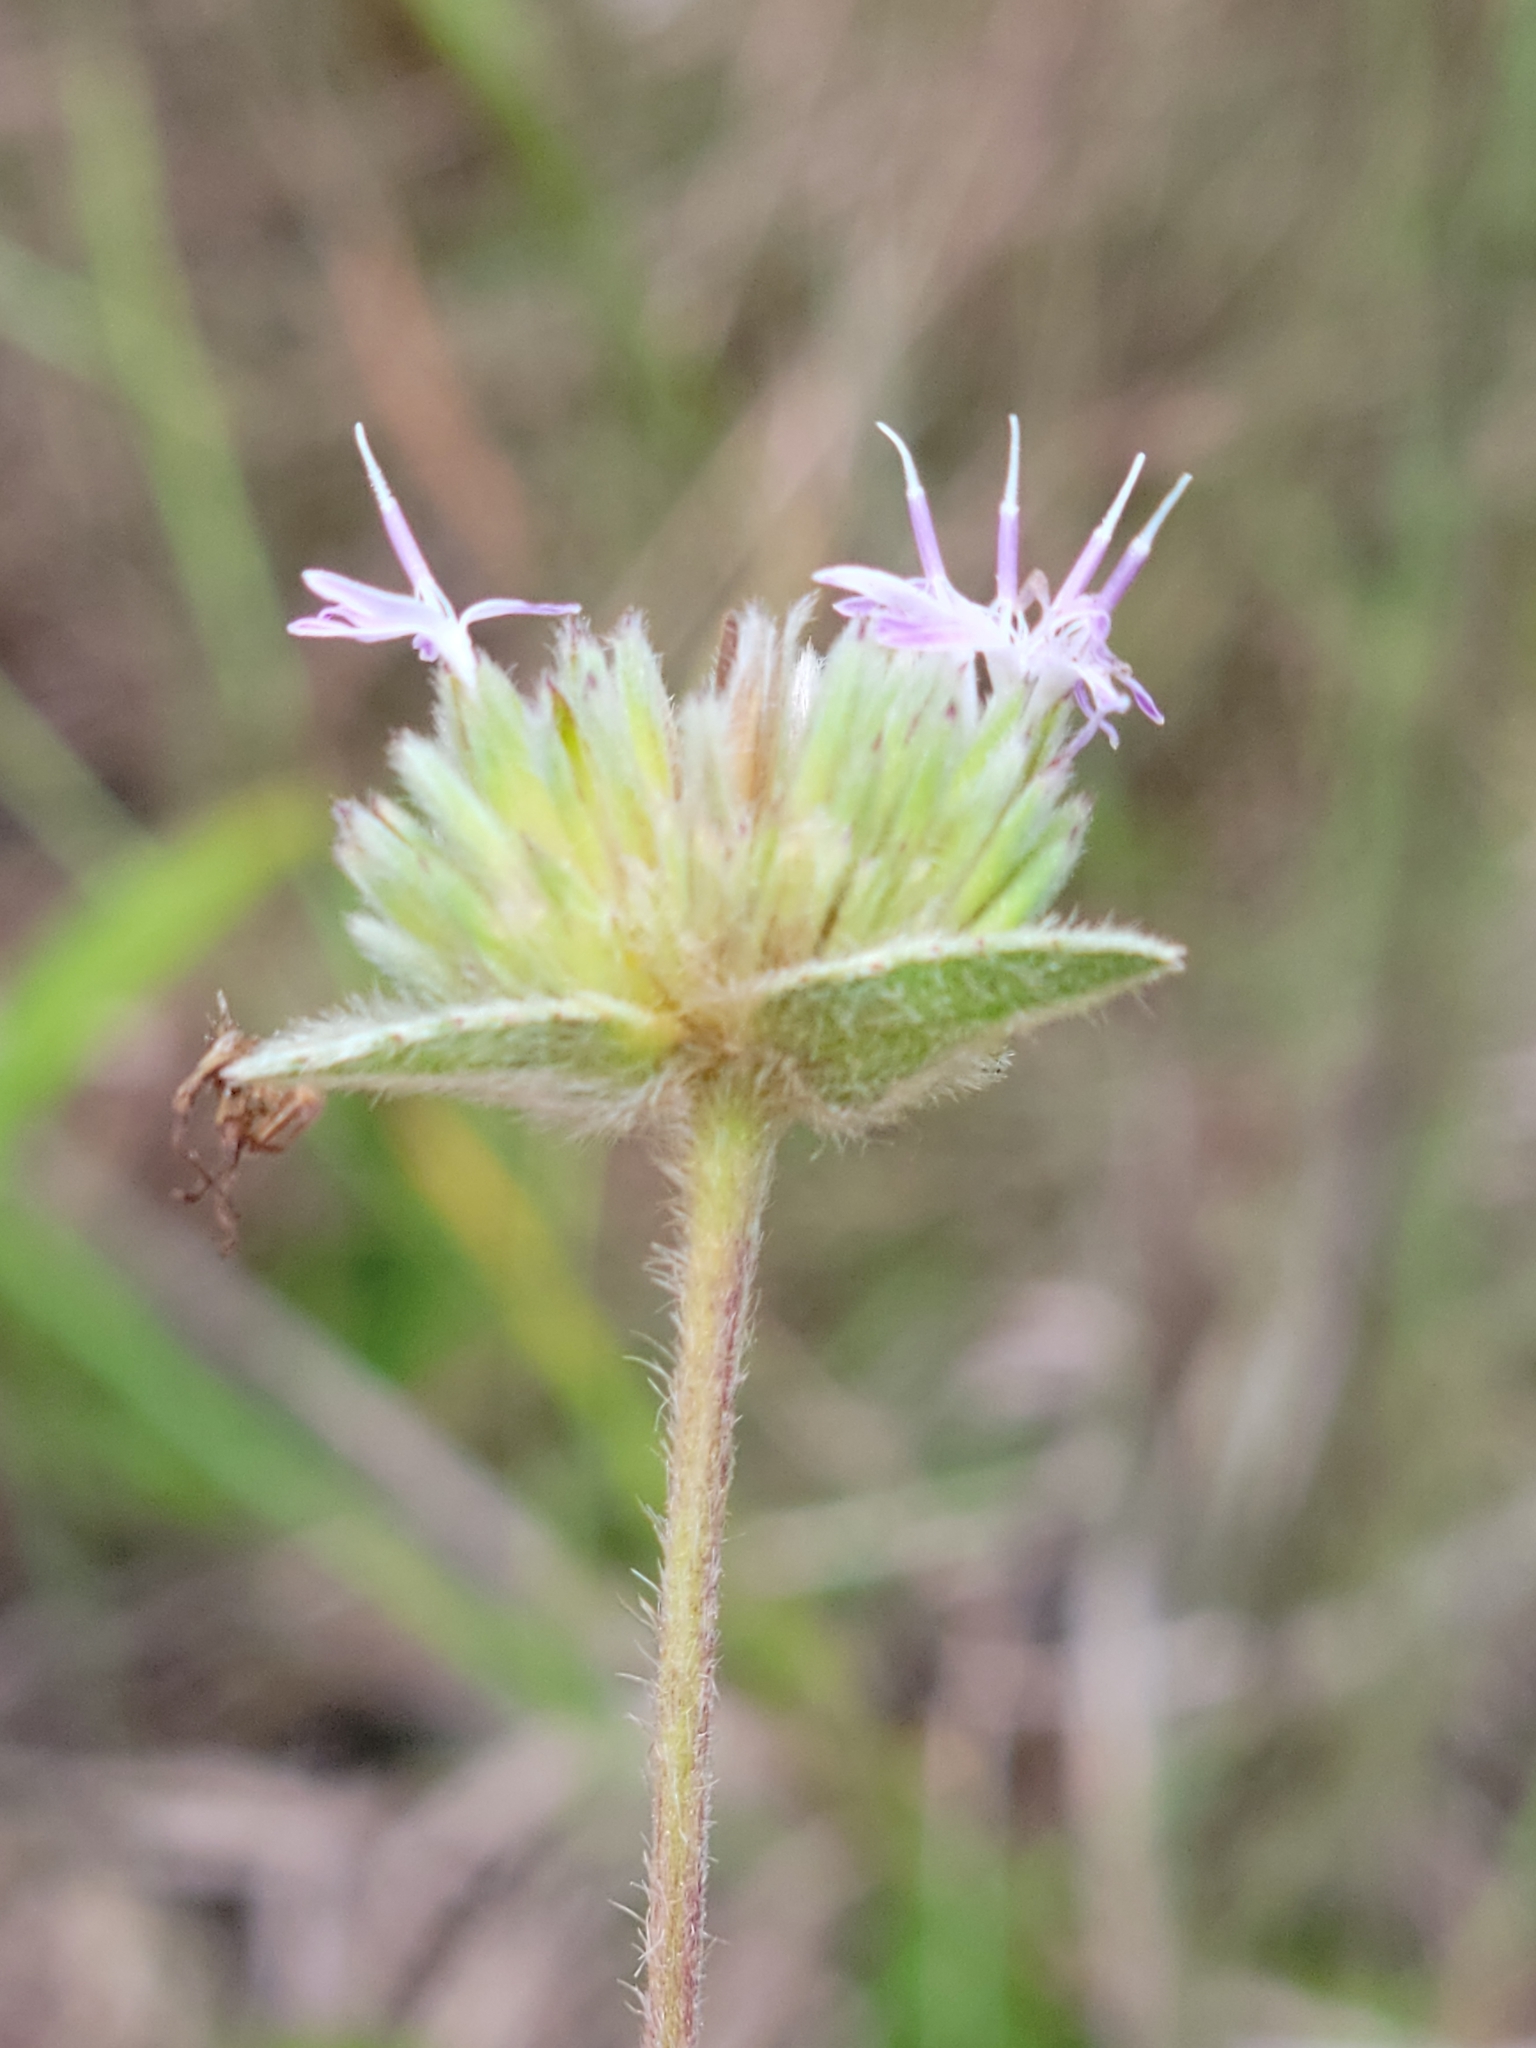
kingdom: Plantae
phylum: Tracheophyta
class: Magnoliopsida
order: Asterales
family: Asteraceae
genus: Elephantopus
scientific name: Elephantopus elatus
